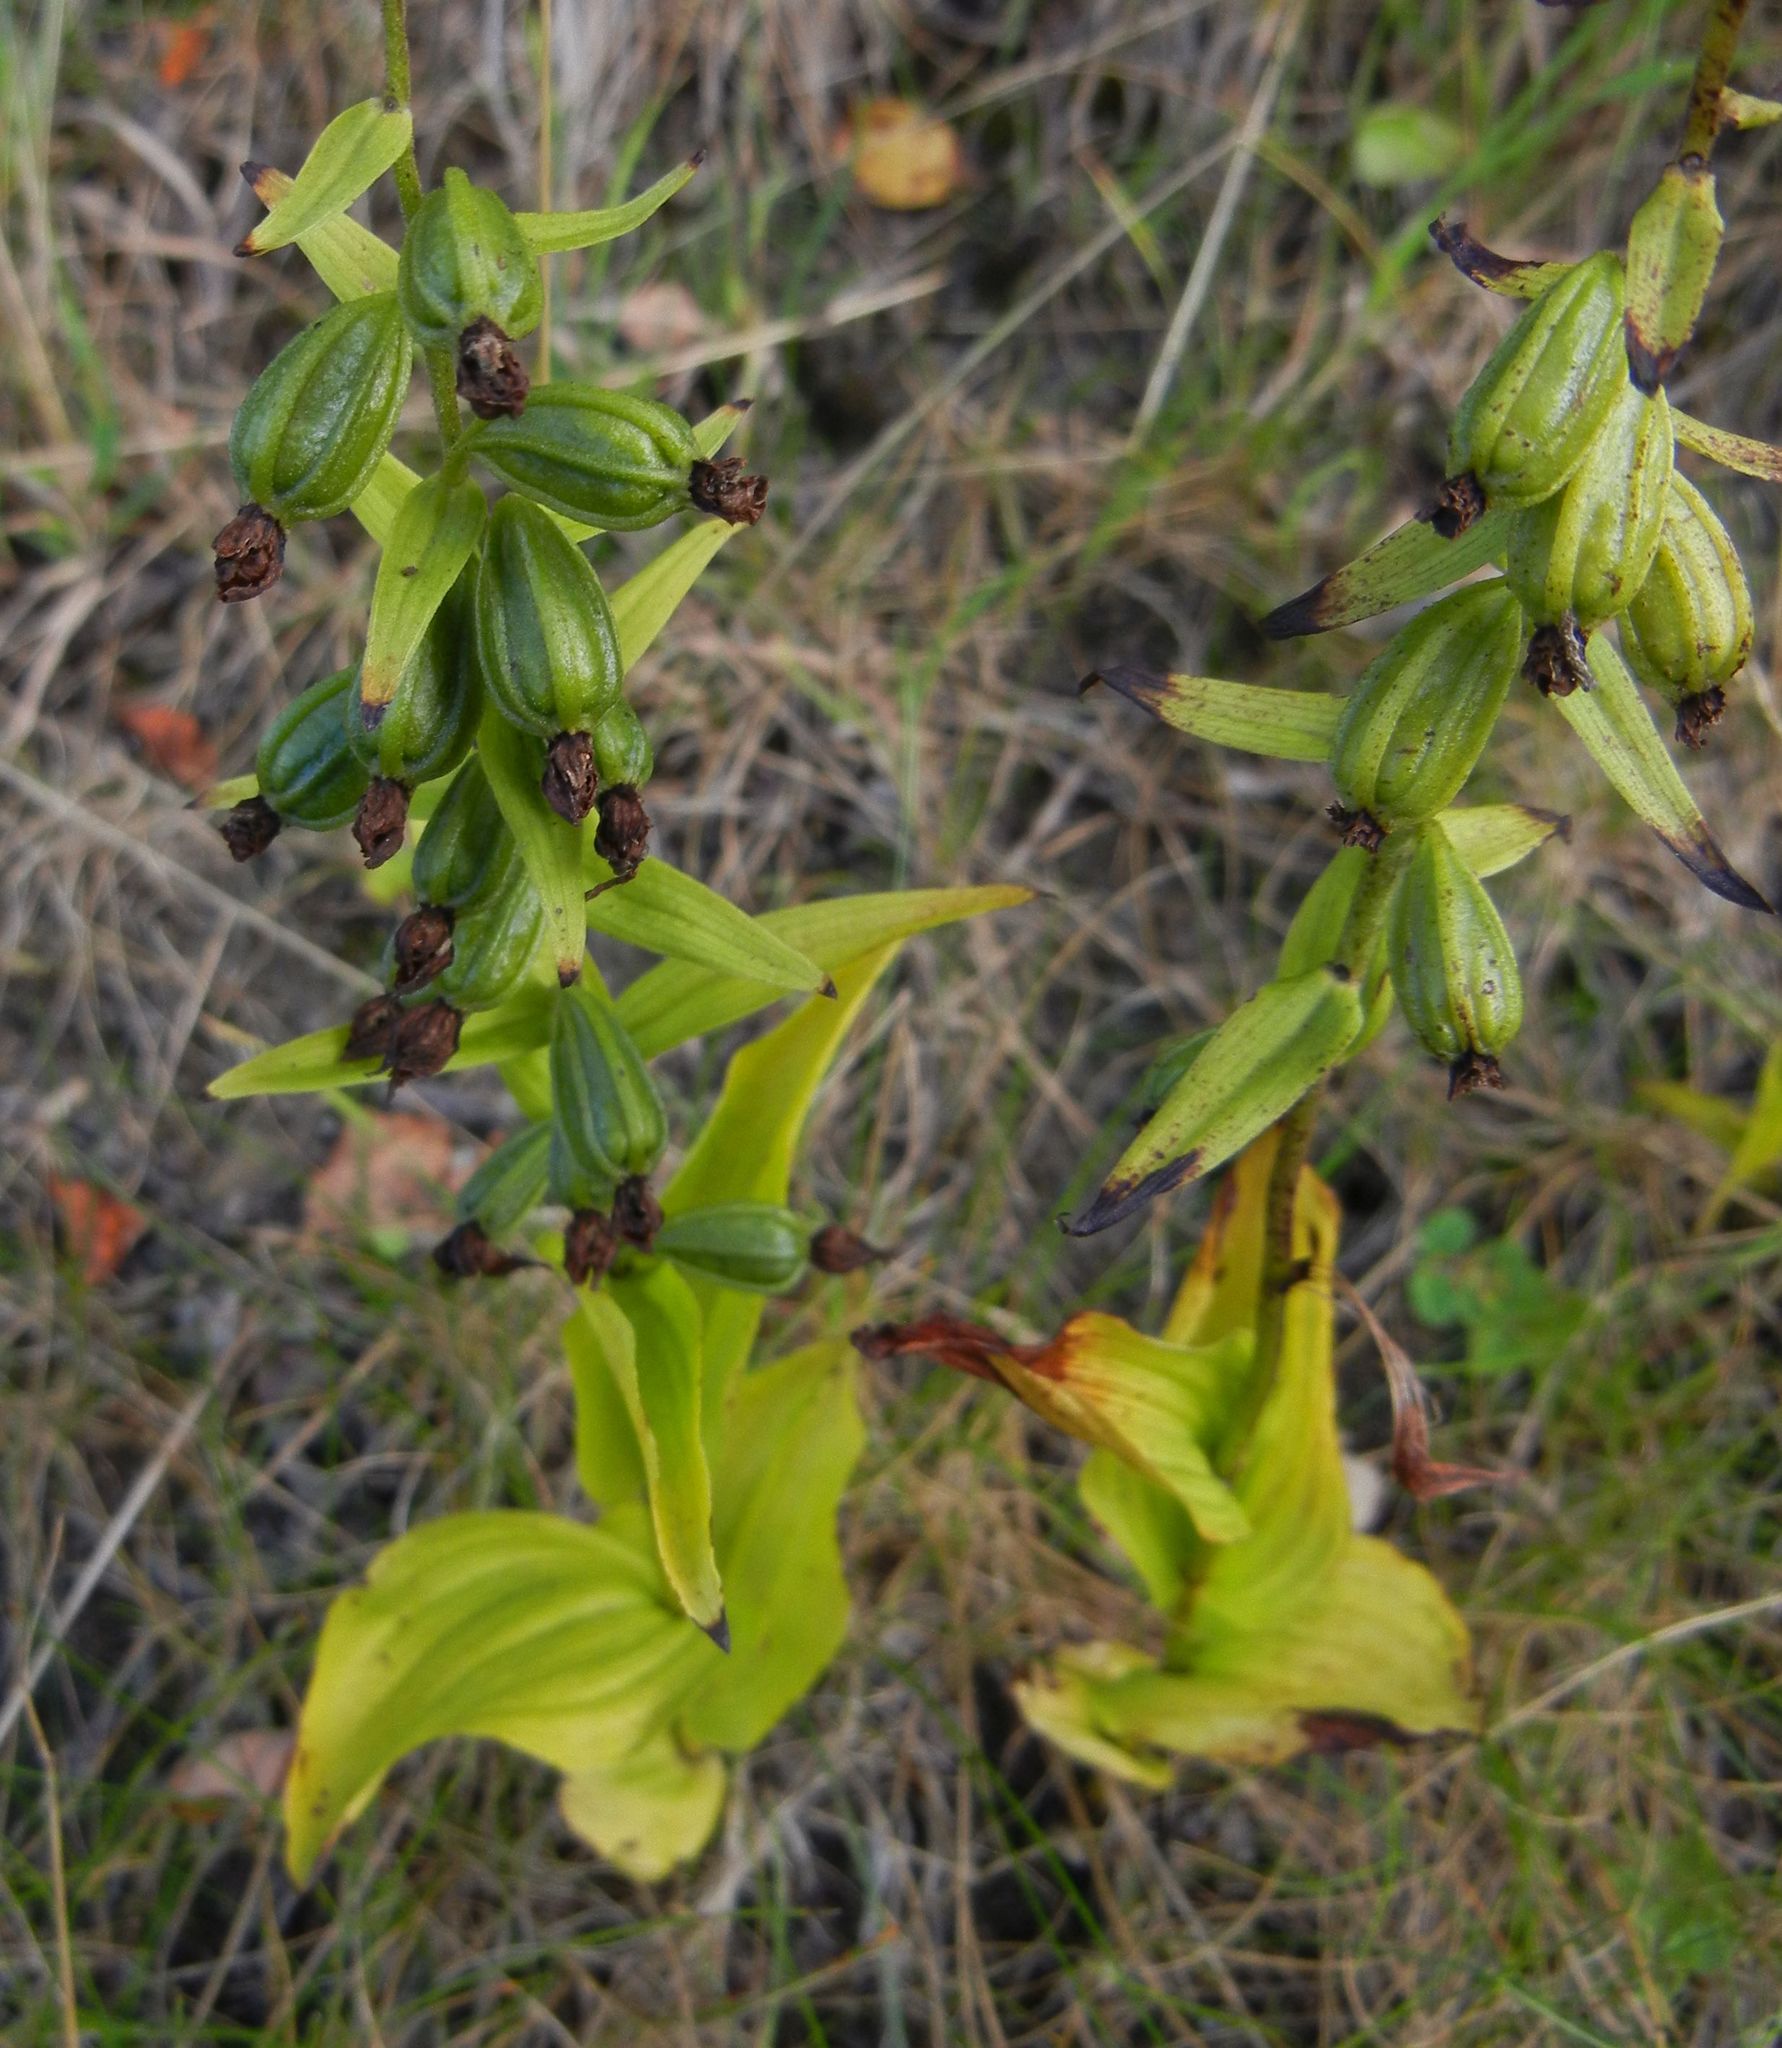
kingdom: Plantae
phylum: Tracheophyta
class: Liliopsida
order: Asparagales
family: Orchidaceae
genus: Epipactis
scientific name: Epipactis helleborine
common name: Broad-leaved helleborine
